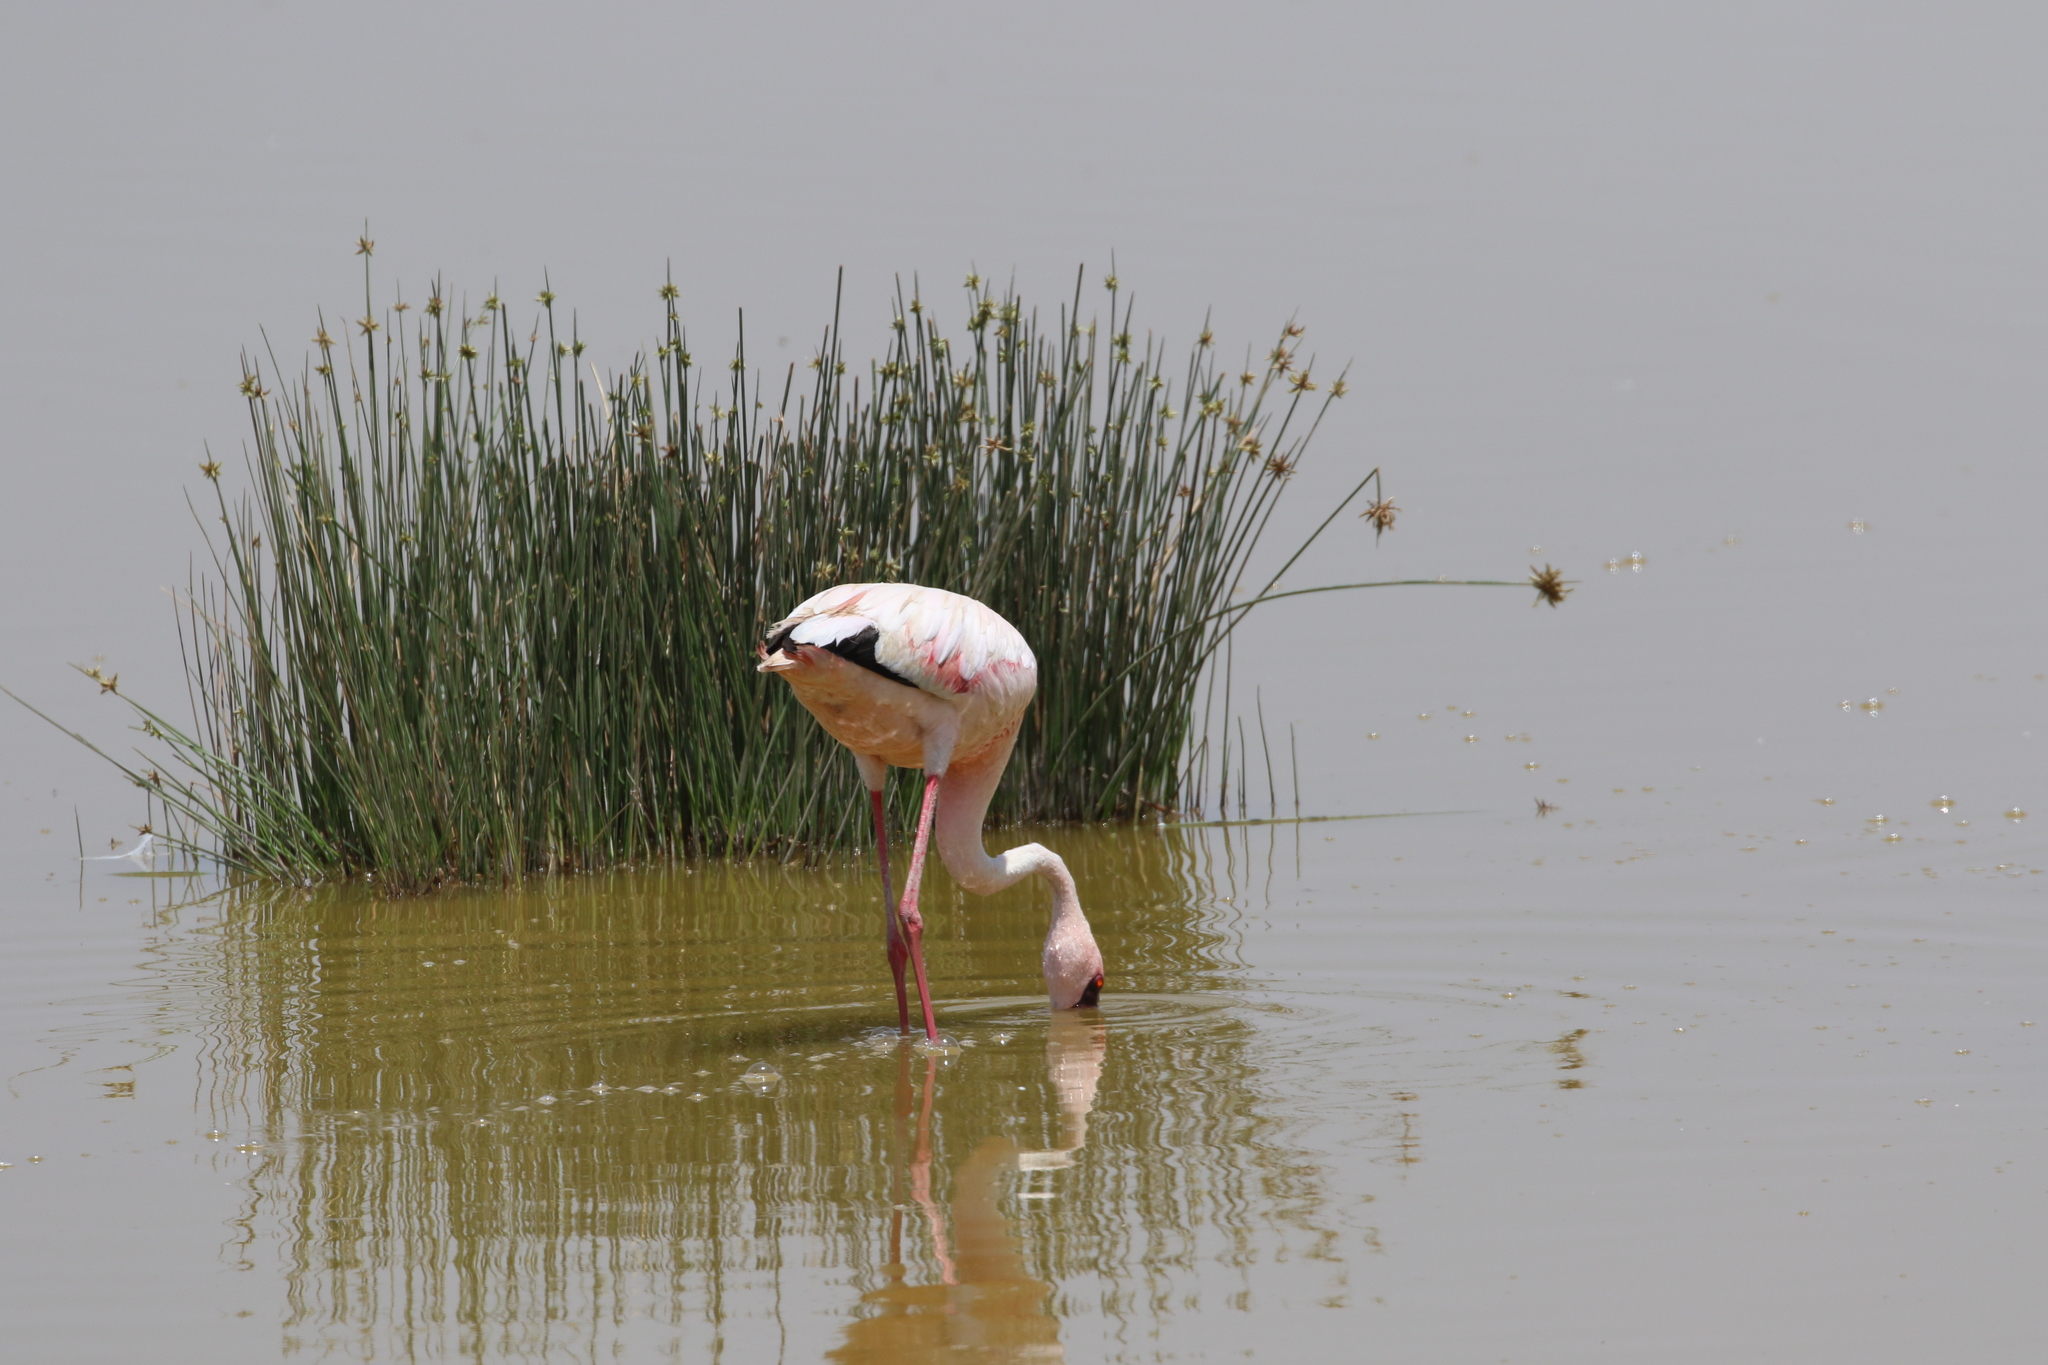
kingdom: Animalia
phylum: Chordata
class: Aves
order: Phoenicopteriformes
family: Phoenicopteridae
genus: Phoeniconaias
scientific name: Phoeniconaias minor
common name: Lesser flamingo
